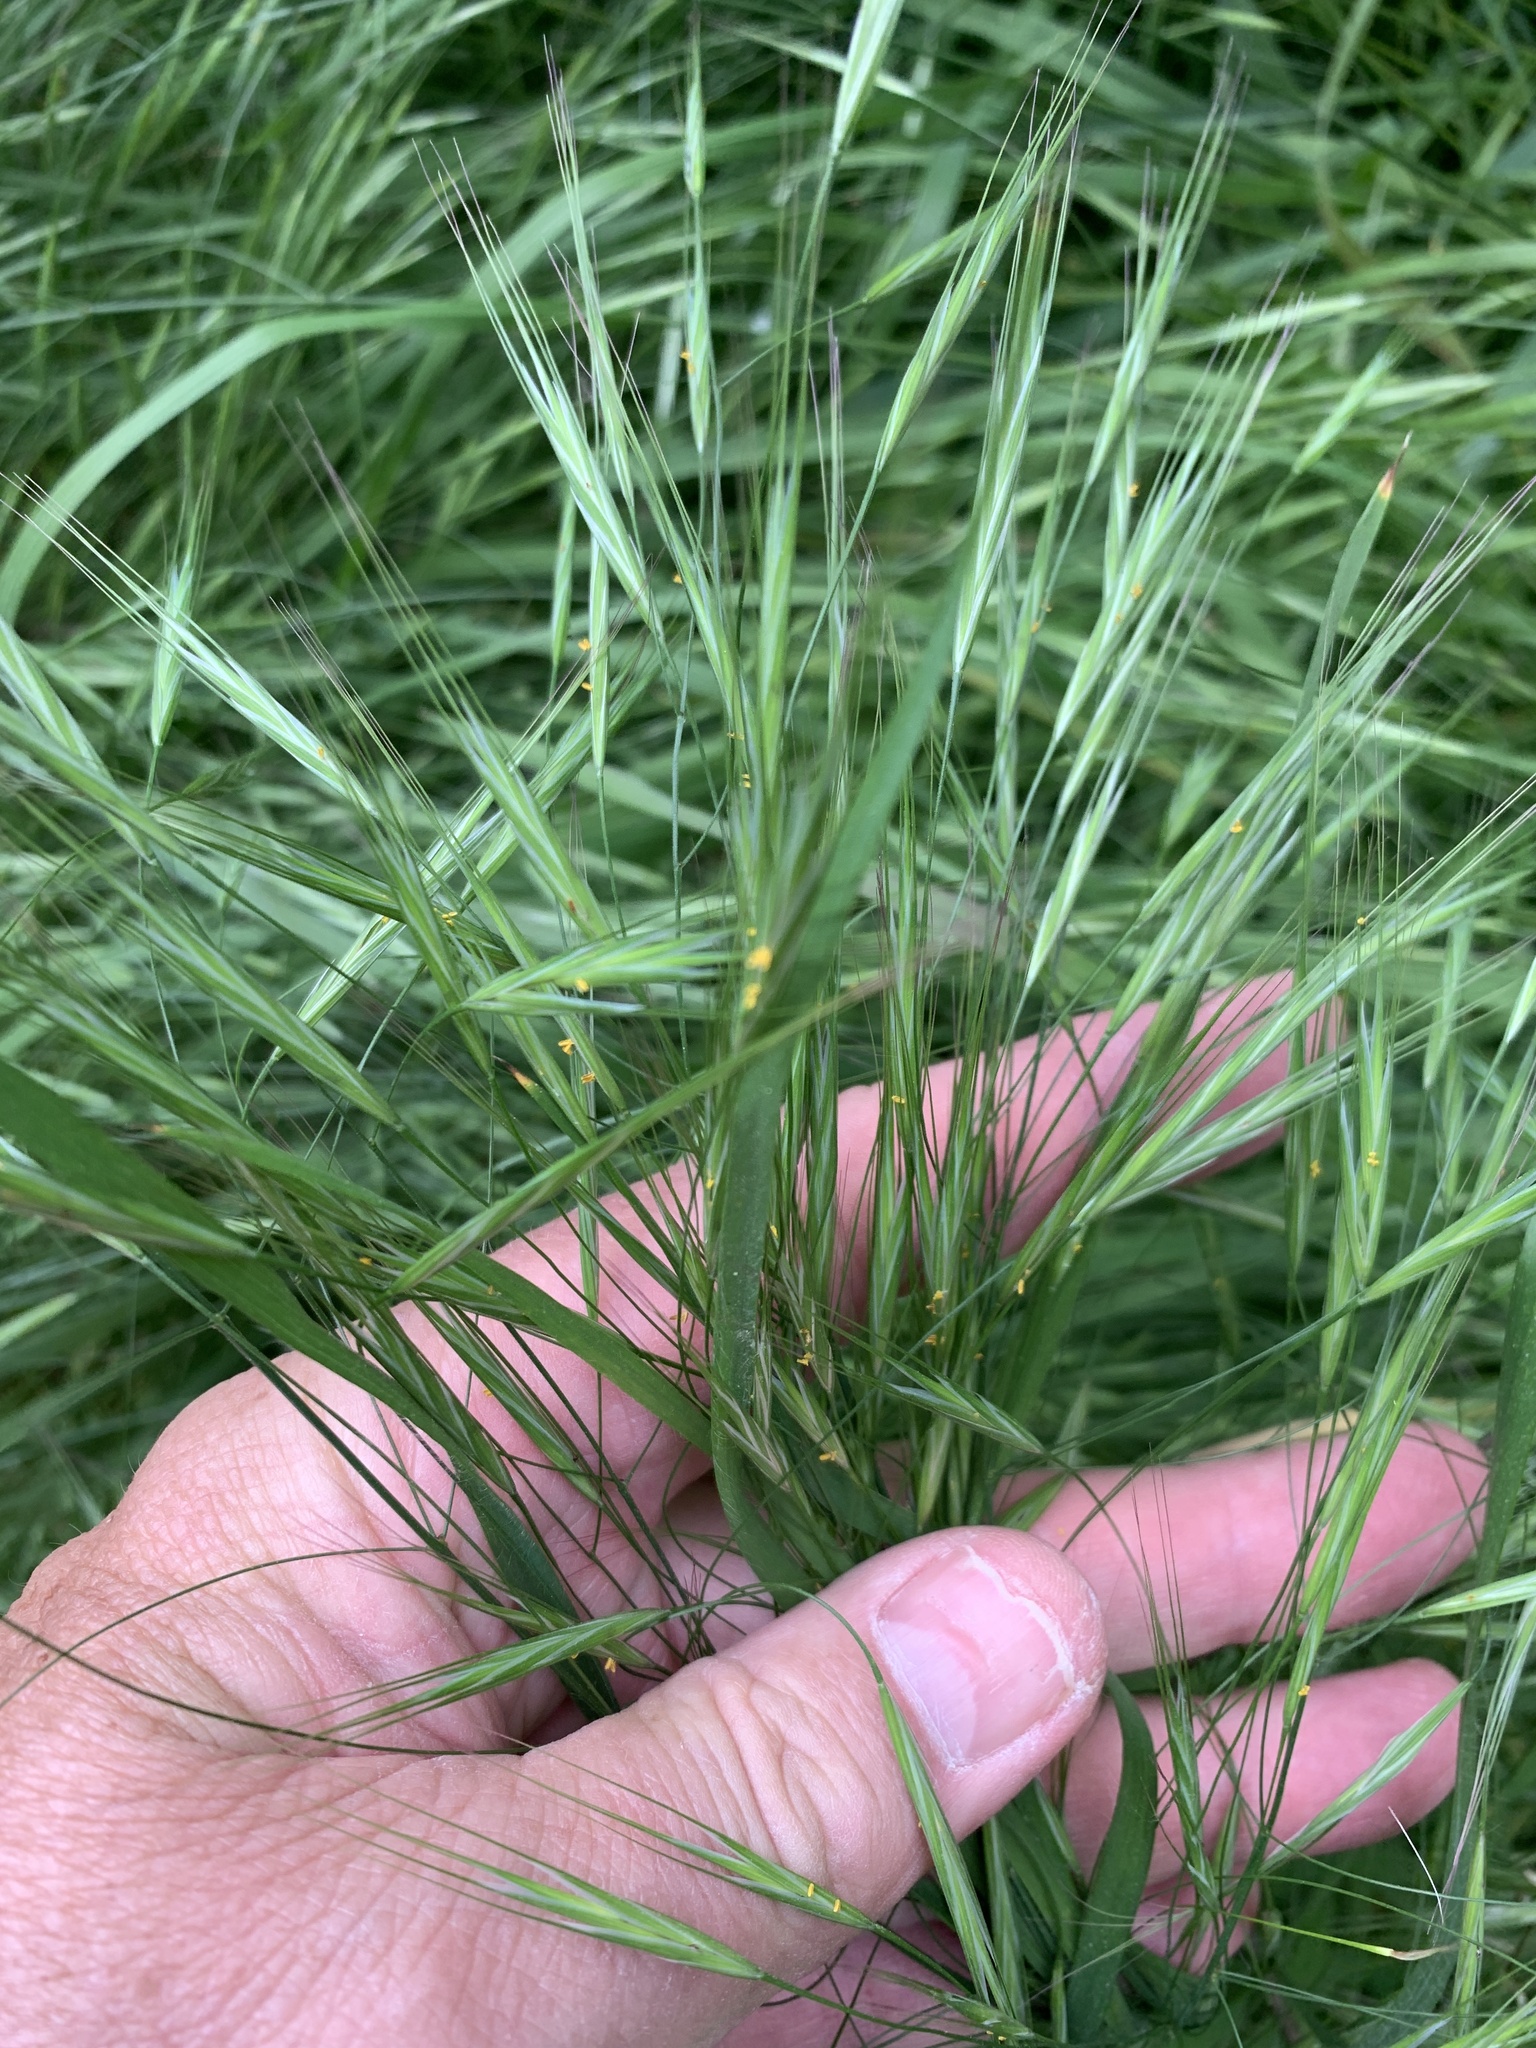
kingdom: Plantae
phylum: Tracheophyta
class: Liliopsida
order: Poales
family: Poaceae
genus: Bromus
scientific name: Bromus sterilis
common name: Poverty brome
